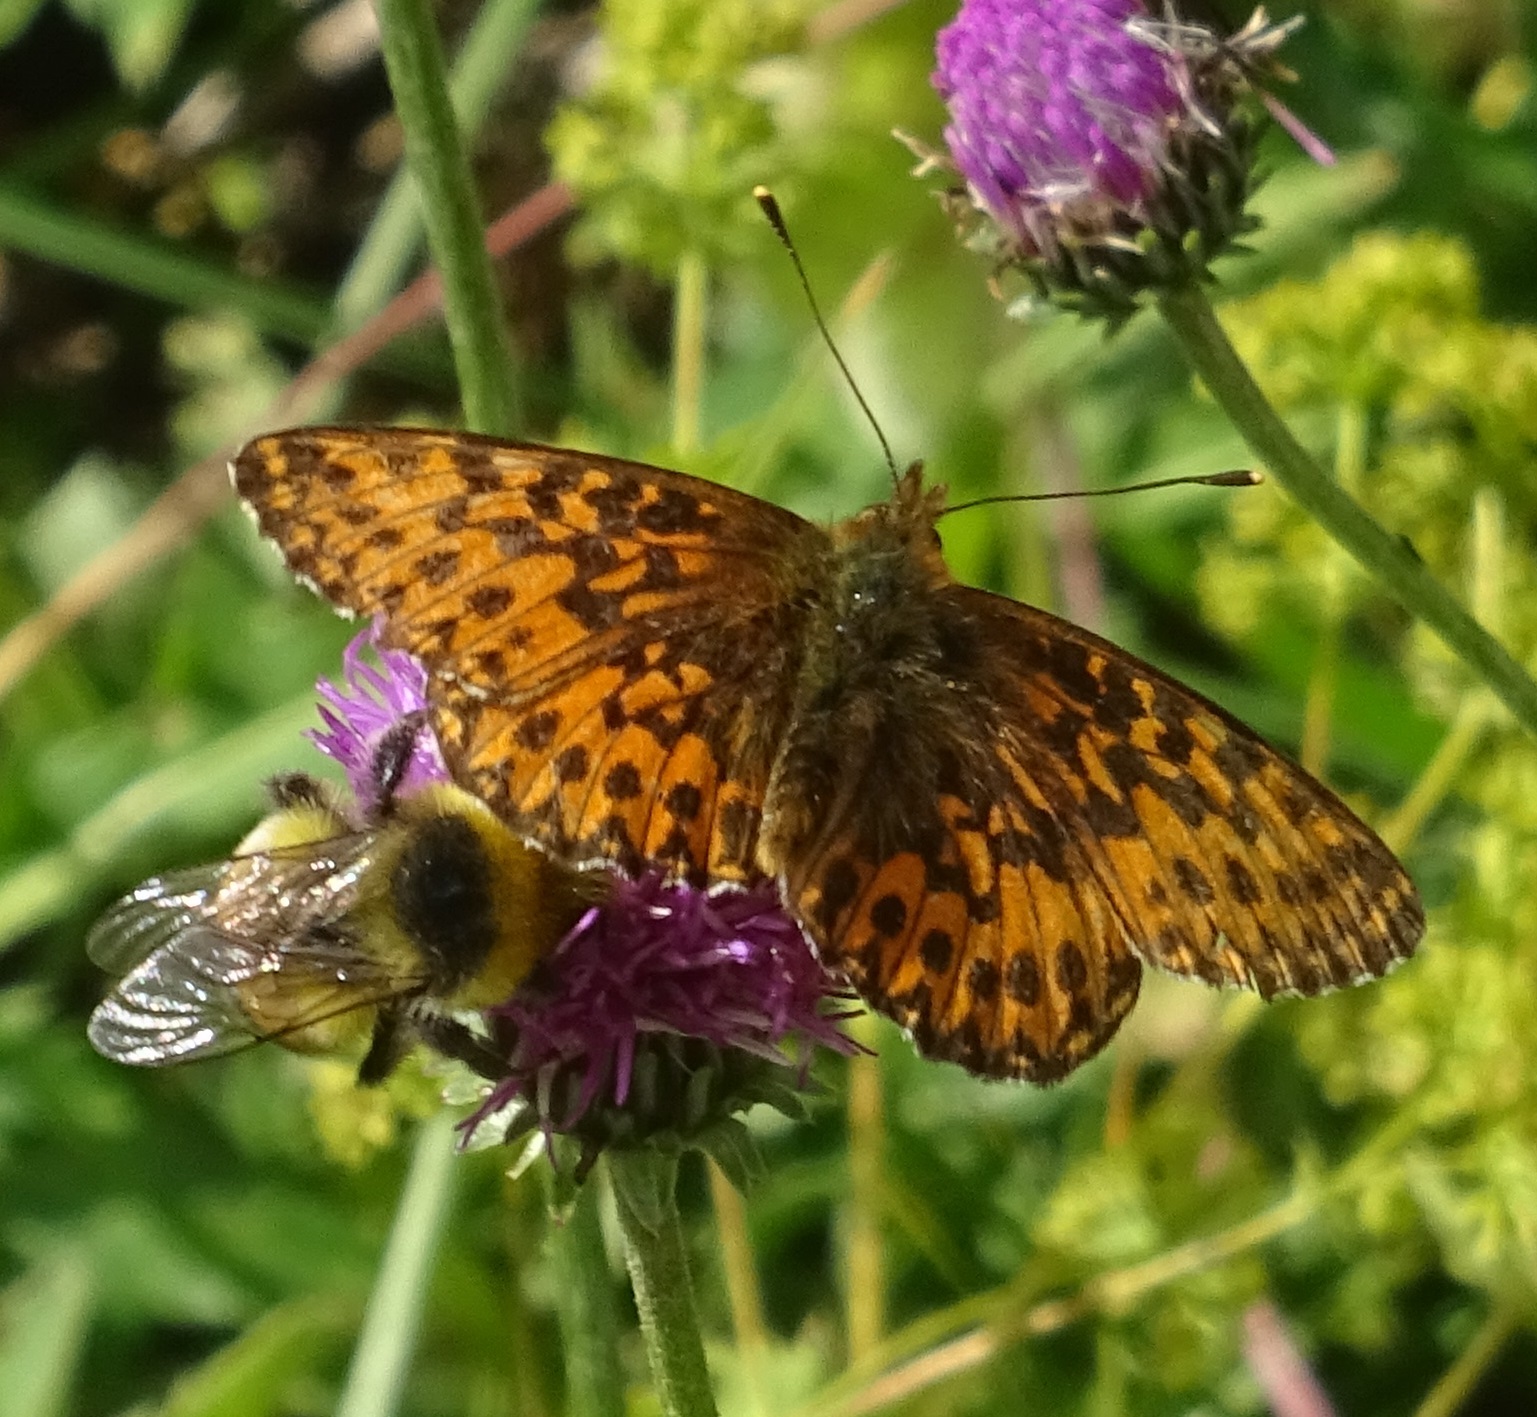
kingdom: Animalia
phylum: Arthropoda
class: Insecta
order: Lepidoptera
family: Nymphalidae
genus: Boloria
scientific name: Boloria titania
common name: Titania's fritillary
